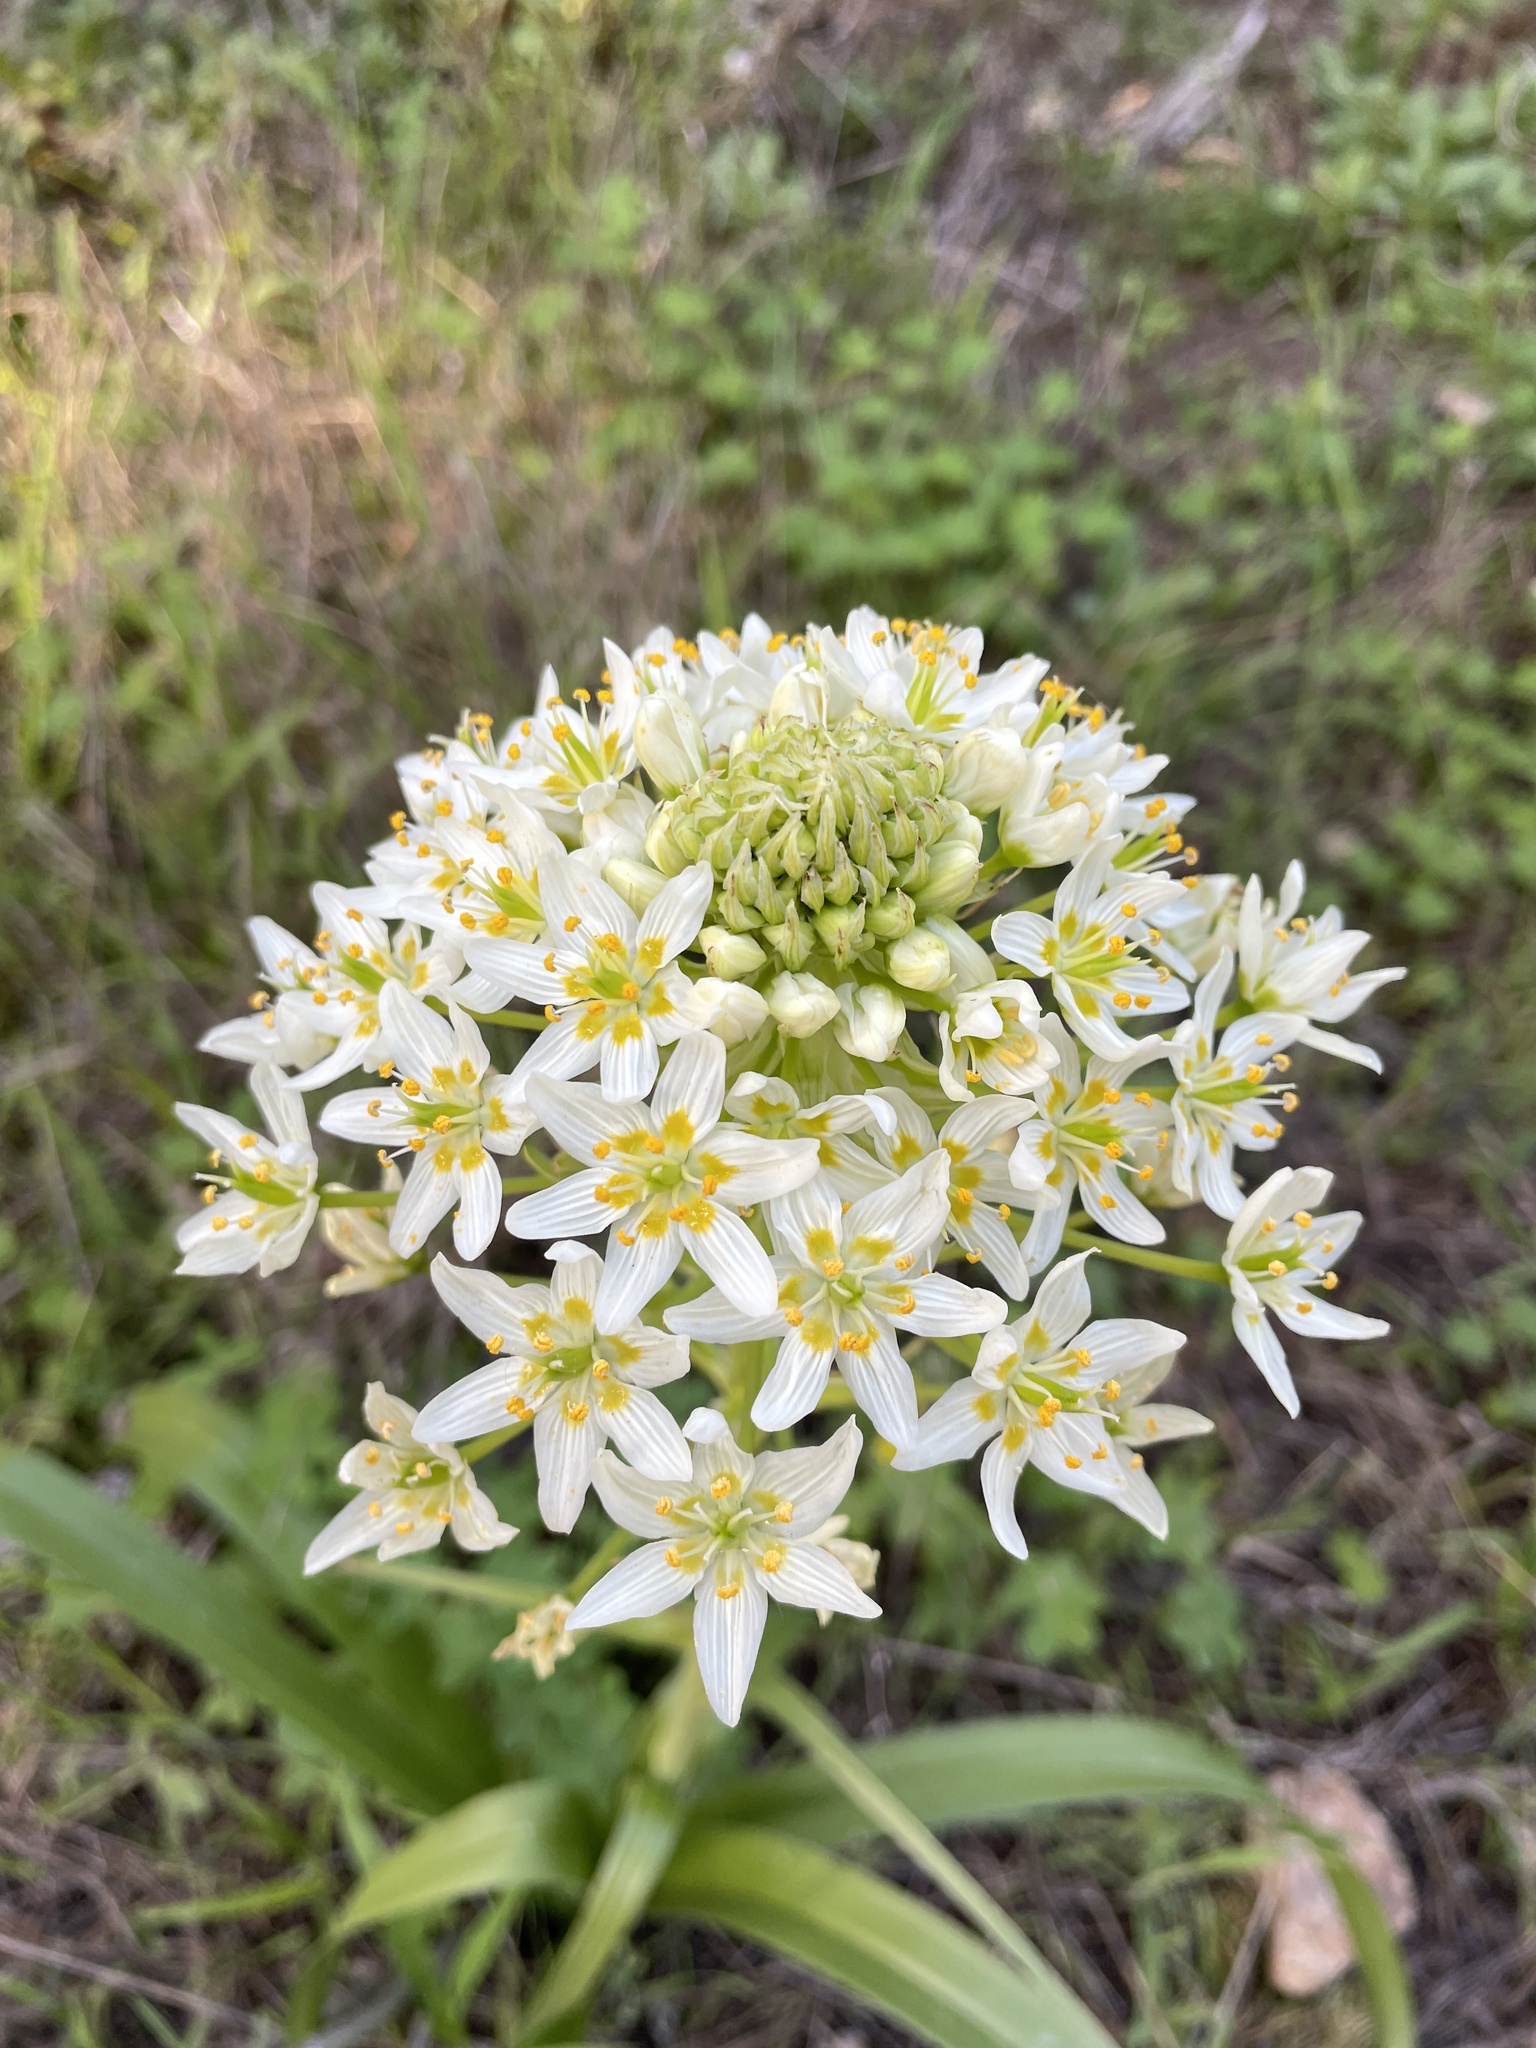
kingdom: Plantae
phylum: Tracheophyta
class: Liliopsida
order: Liliales
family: Melanthiaceae
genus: Toxicoscordion
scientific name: Toxicoscordion fremontii
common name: Fremont's death camas
